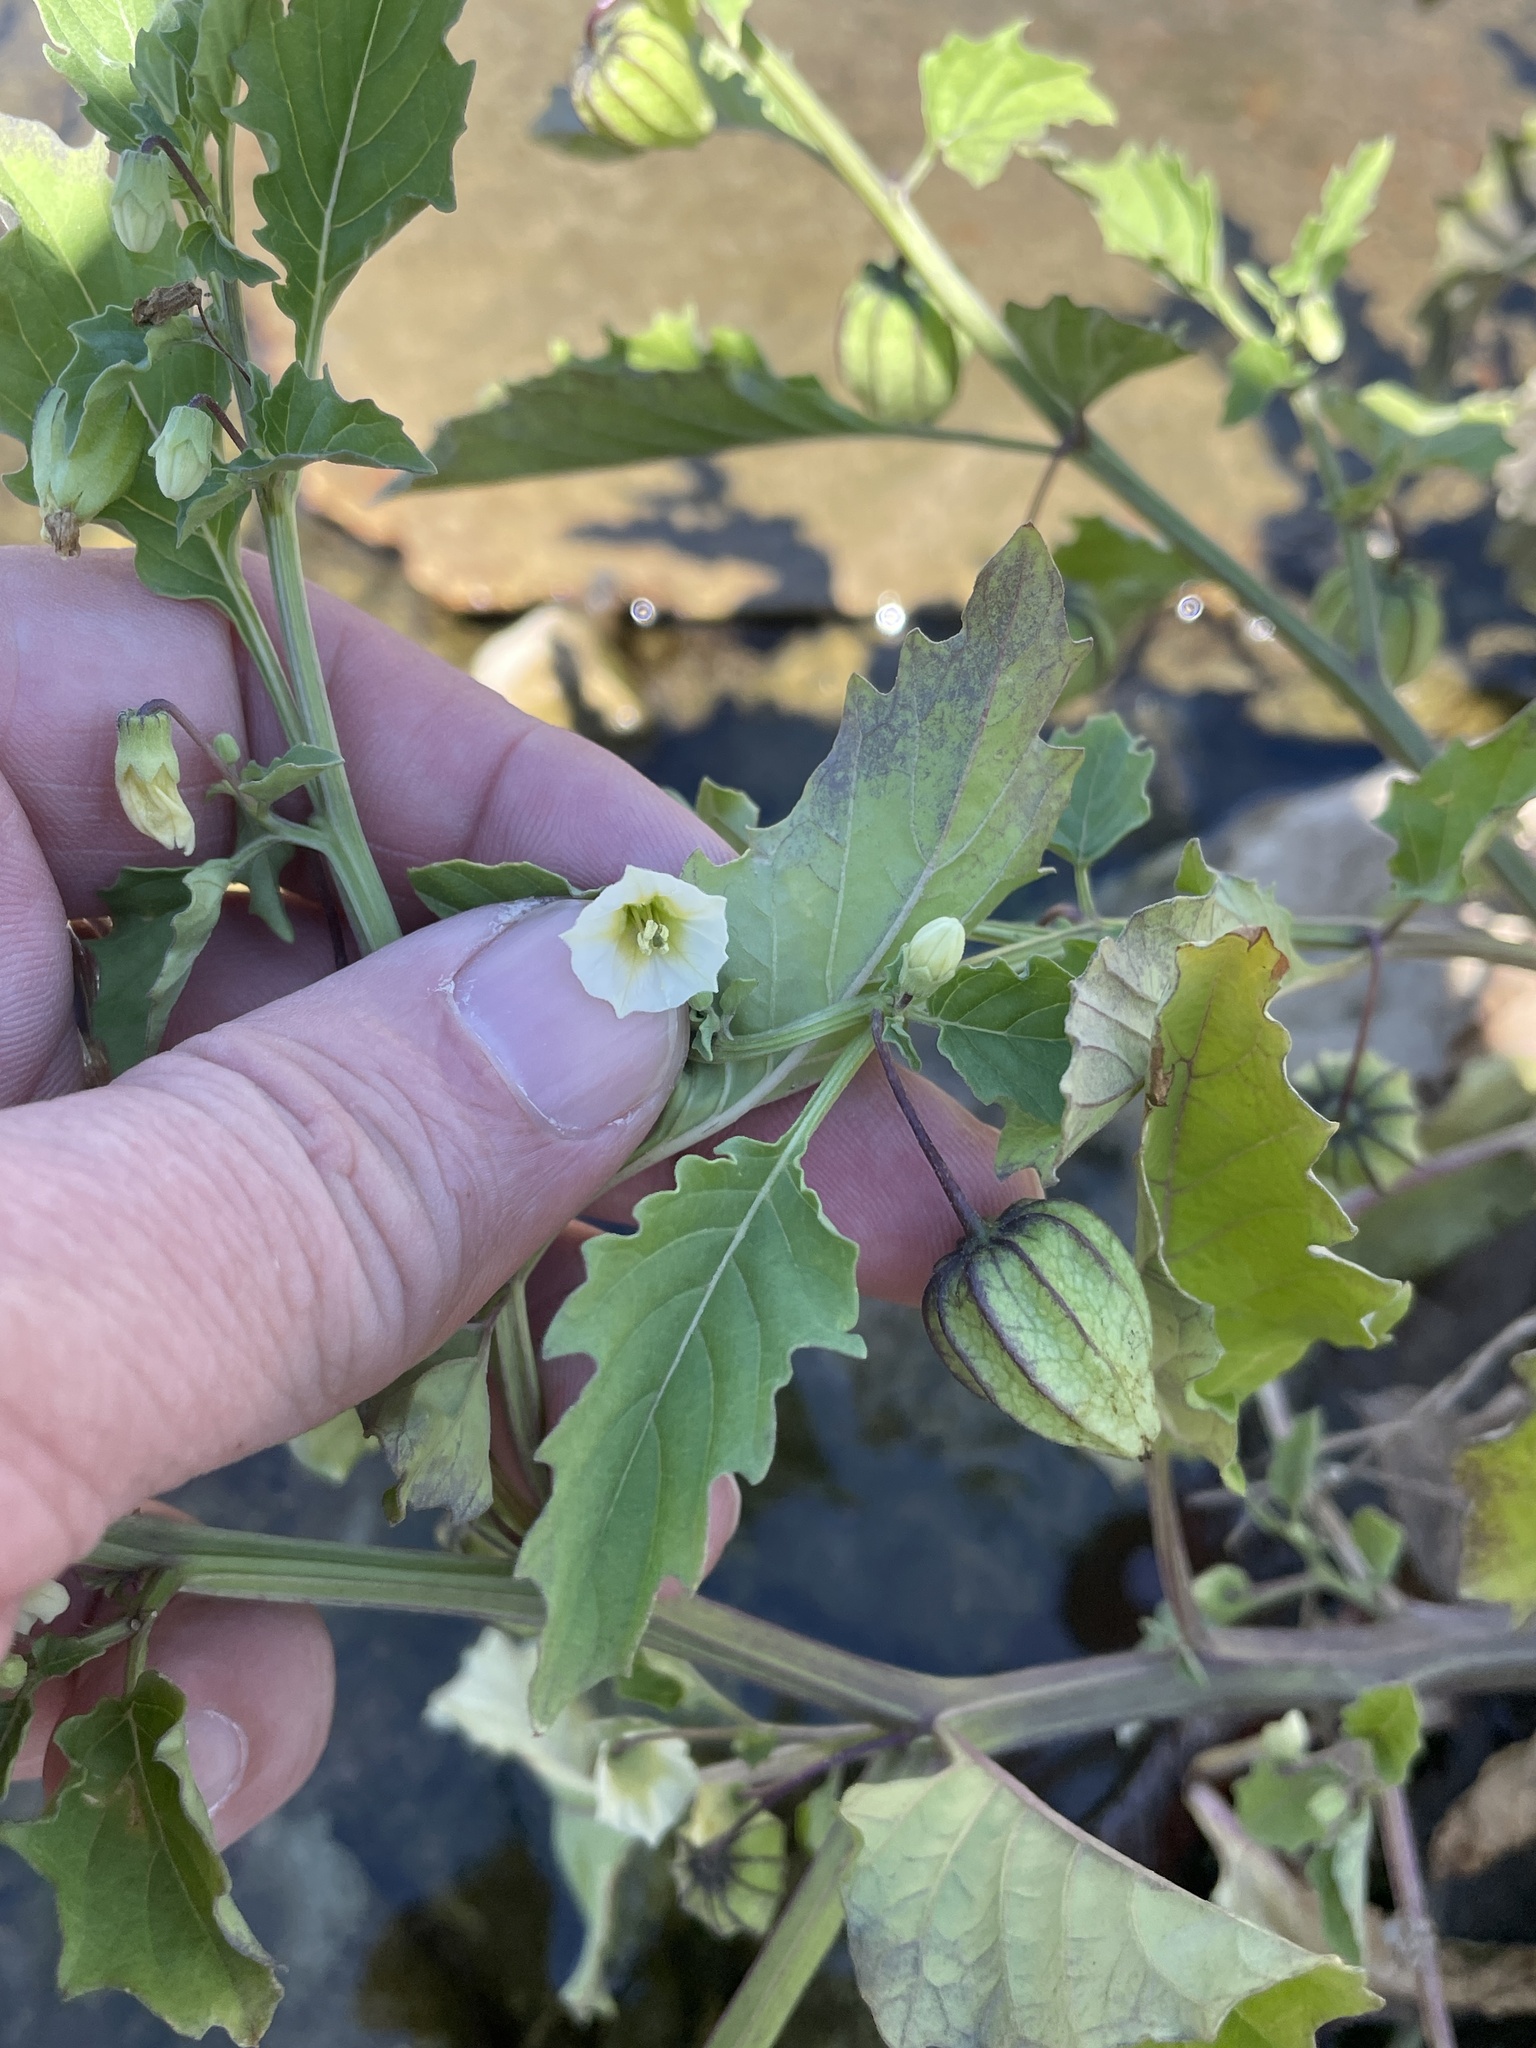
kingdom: Plantae
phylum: Tracheophyta
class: Magnoliopsida
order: Solanales
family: Solanaceae
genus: Physalis
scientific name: Physalis angulata
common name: Angular winter-cherry
